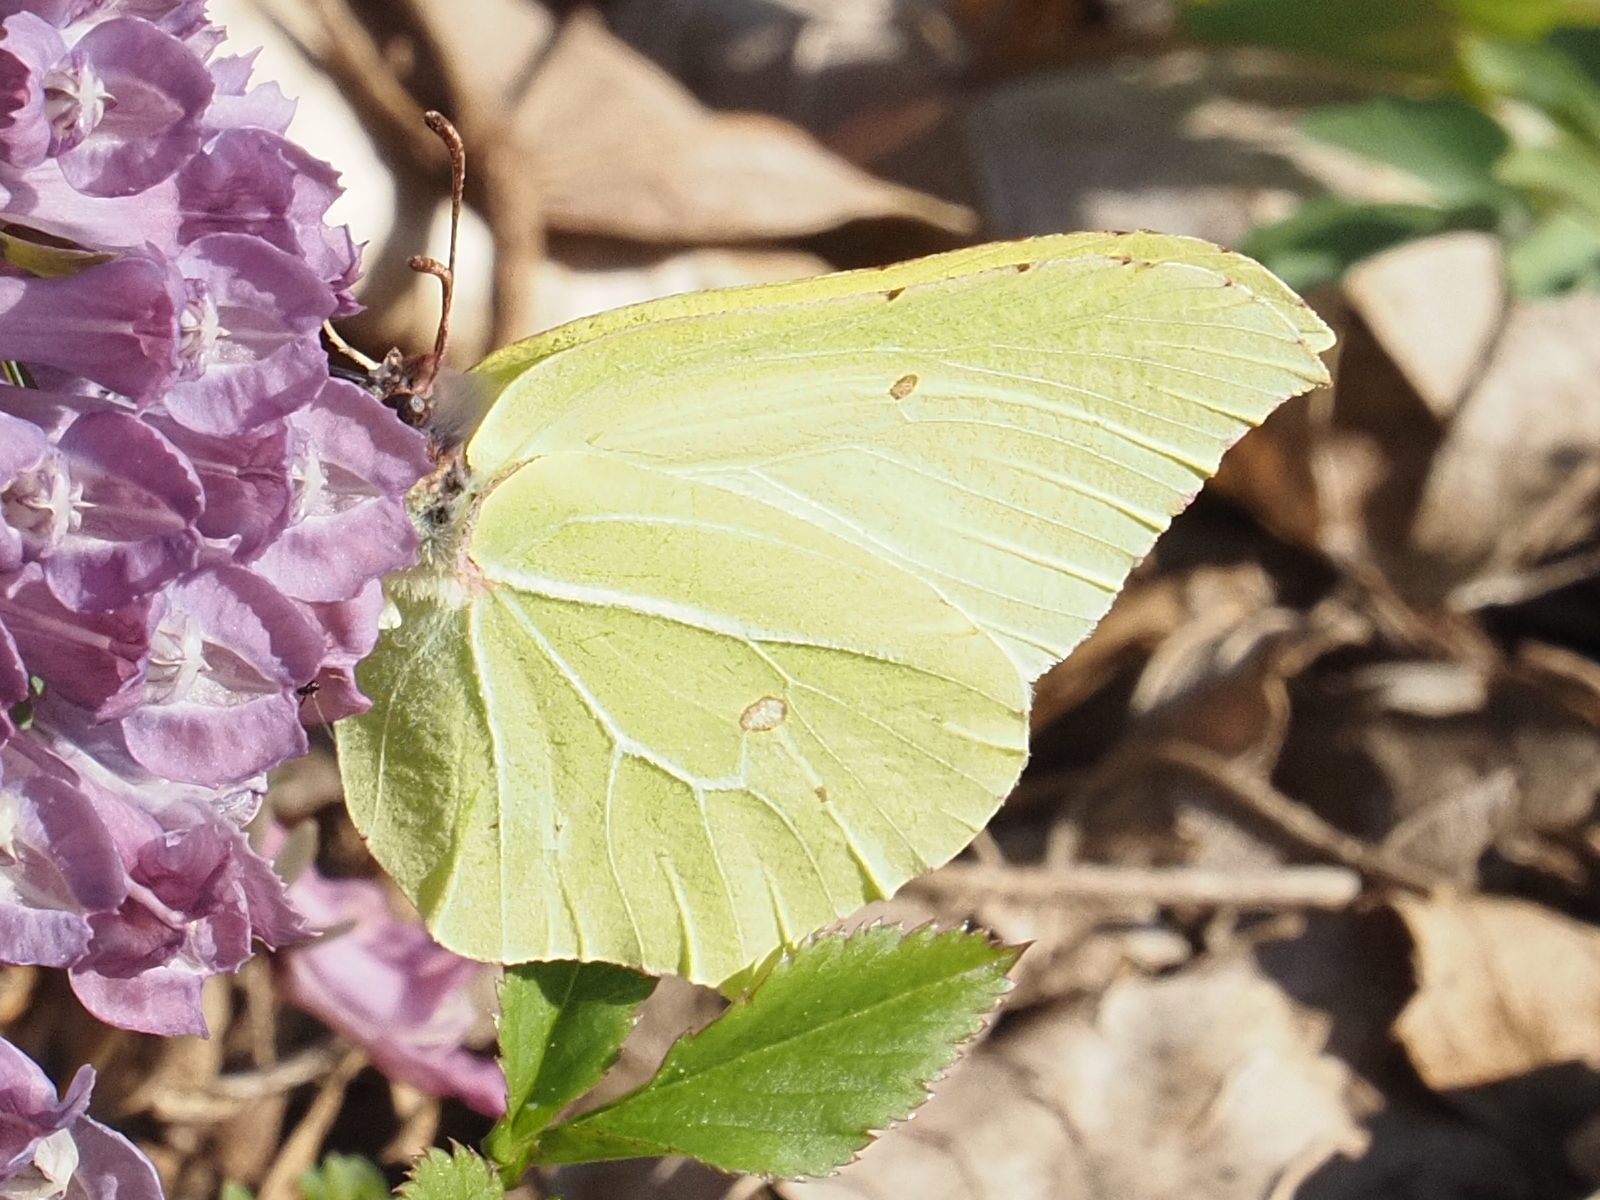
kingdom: Animalia
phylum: Arthropoda
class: Insecta
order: Lepidoptera
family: Pieridae
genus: Gonepteryx
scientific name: Gonepteryx rhamni
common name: Brimstone
